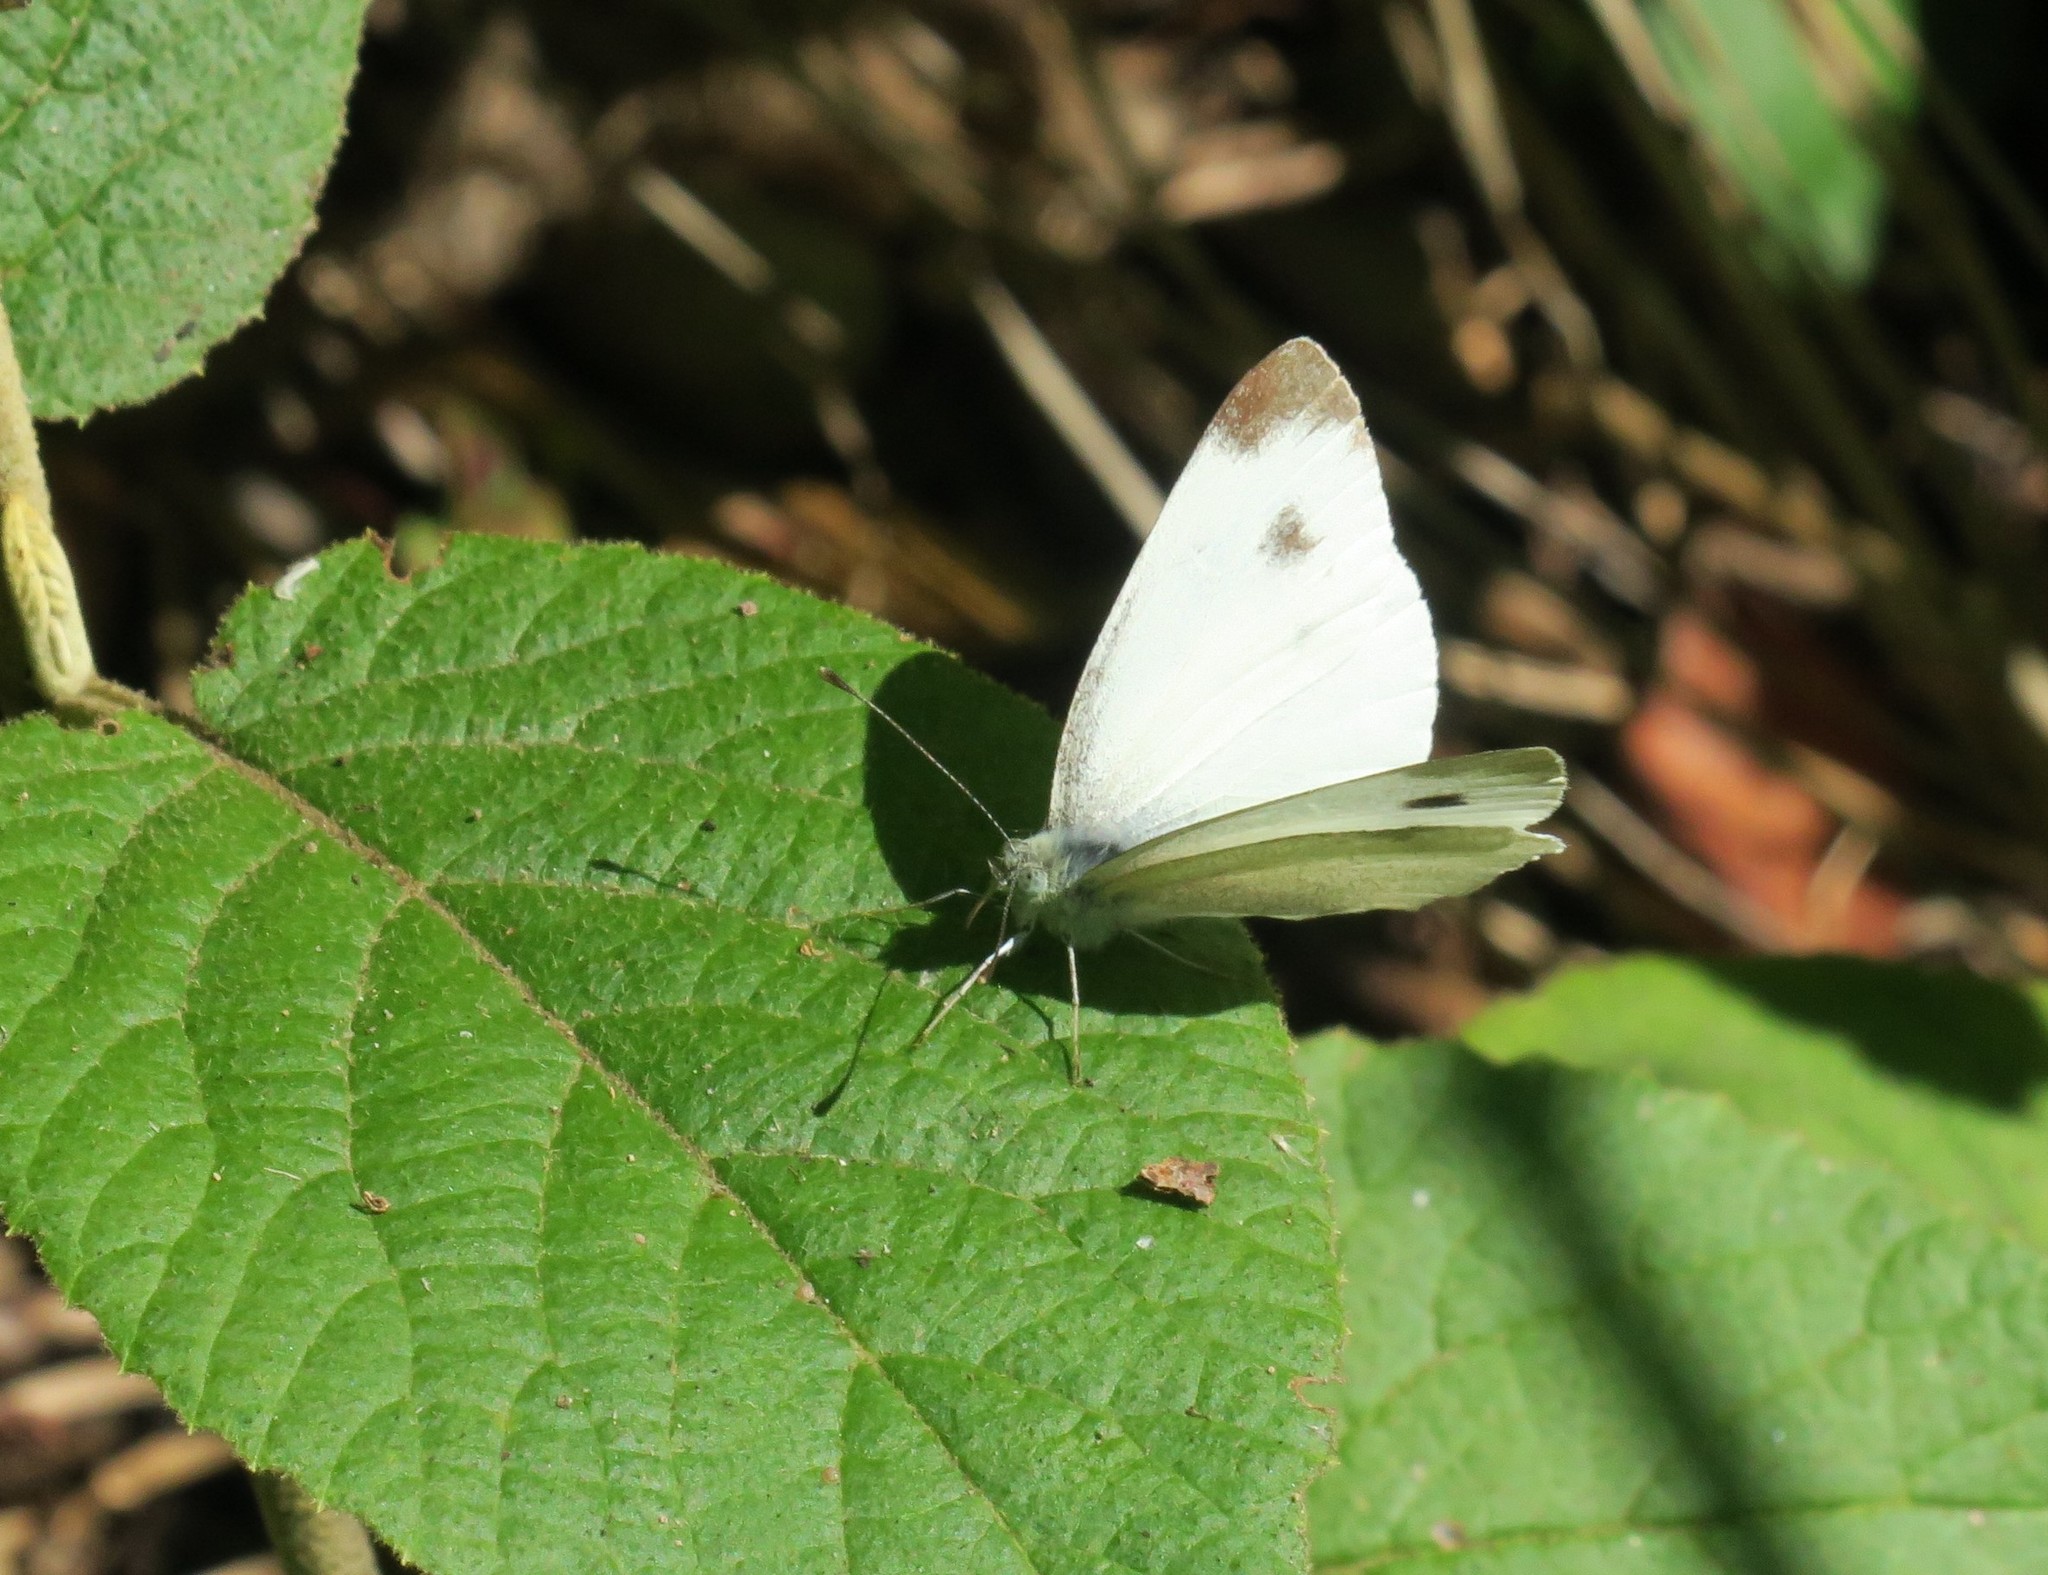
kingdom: Animalia
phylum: Arthropoda
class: Insecta
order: Lepidoptera
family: Pieridae
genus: Pieris
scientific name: Pieris mannii
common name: Southern small white
